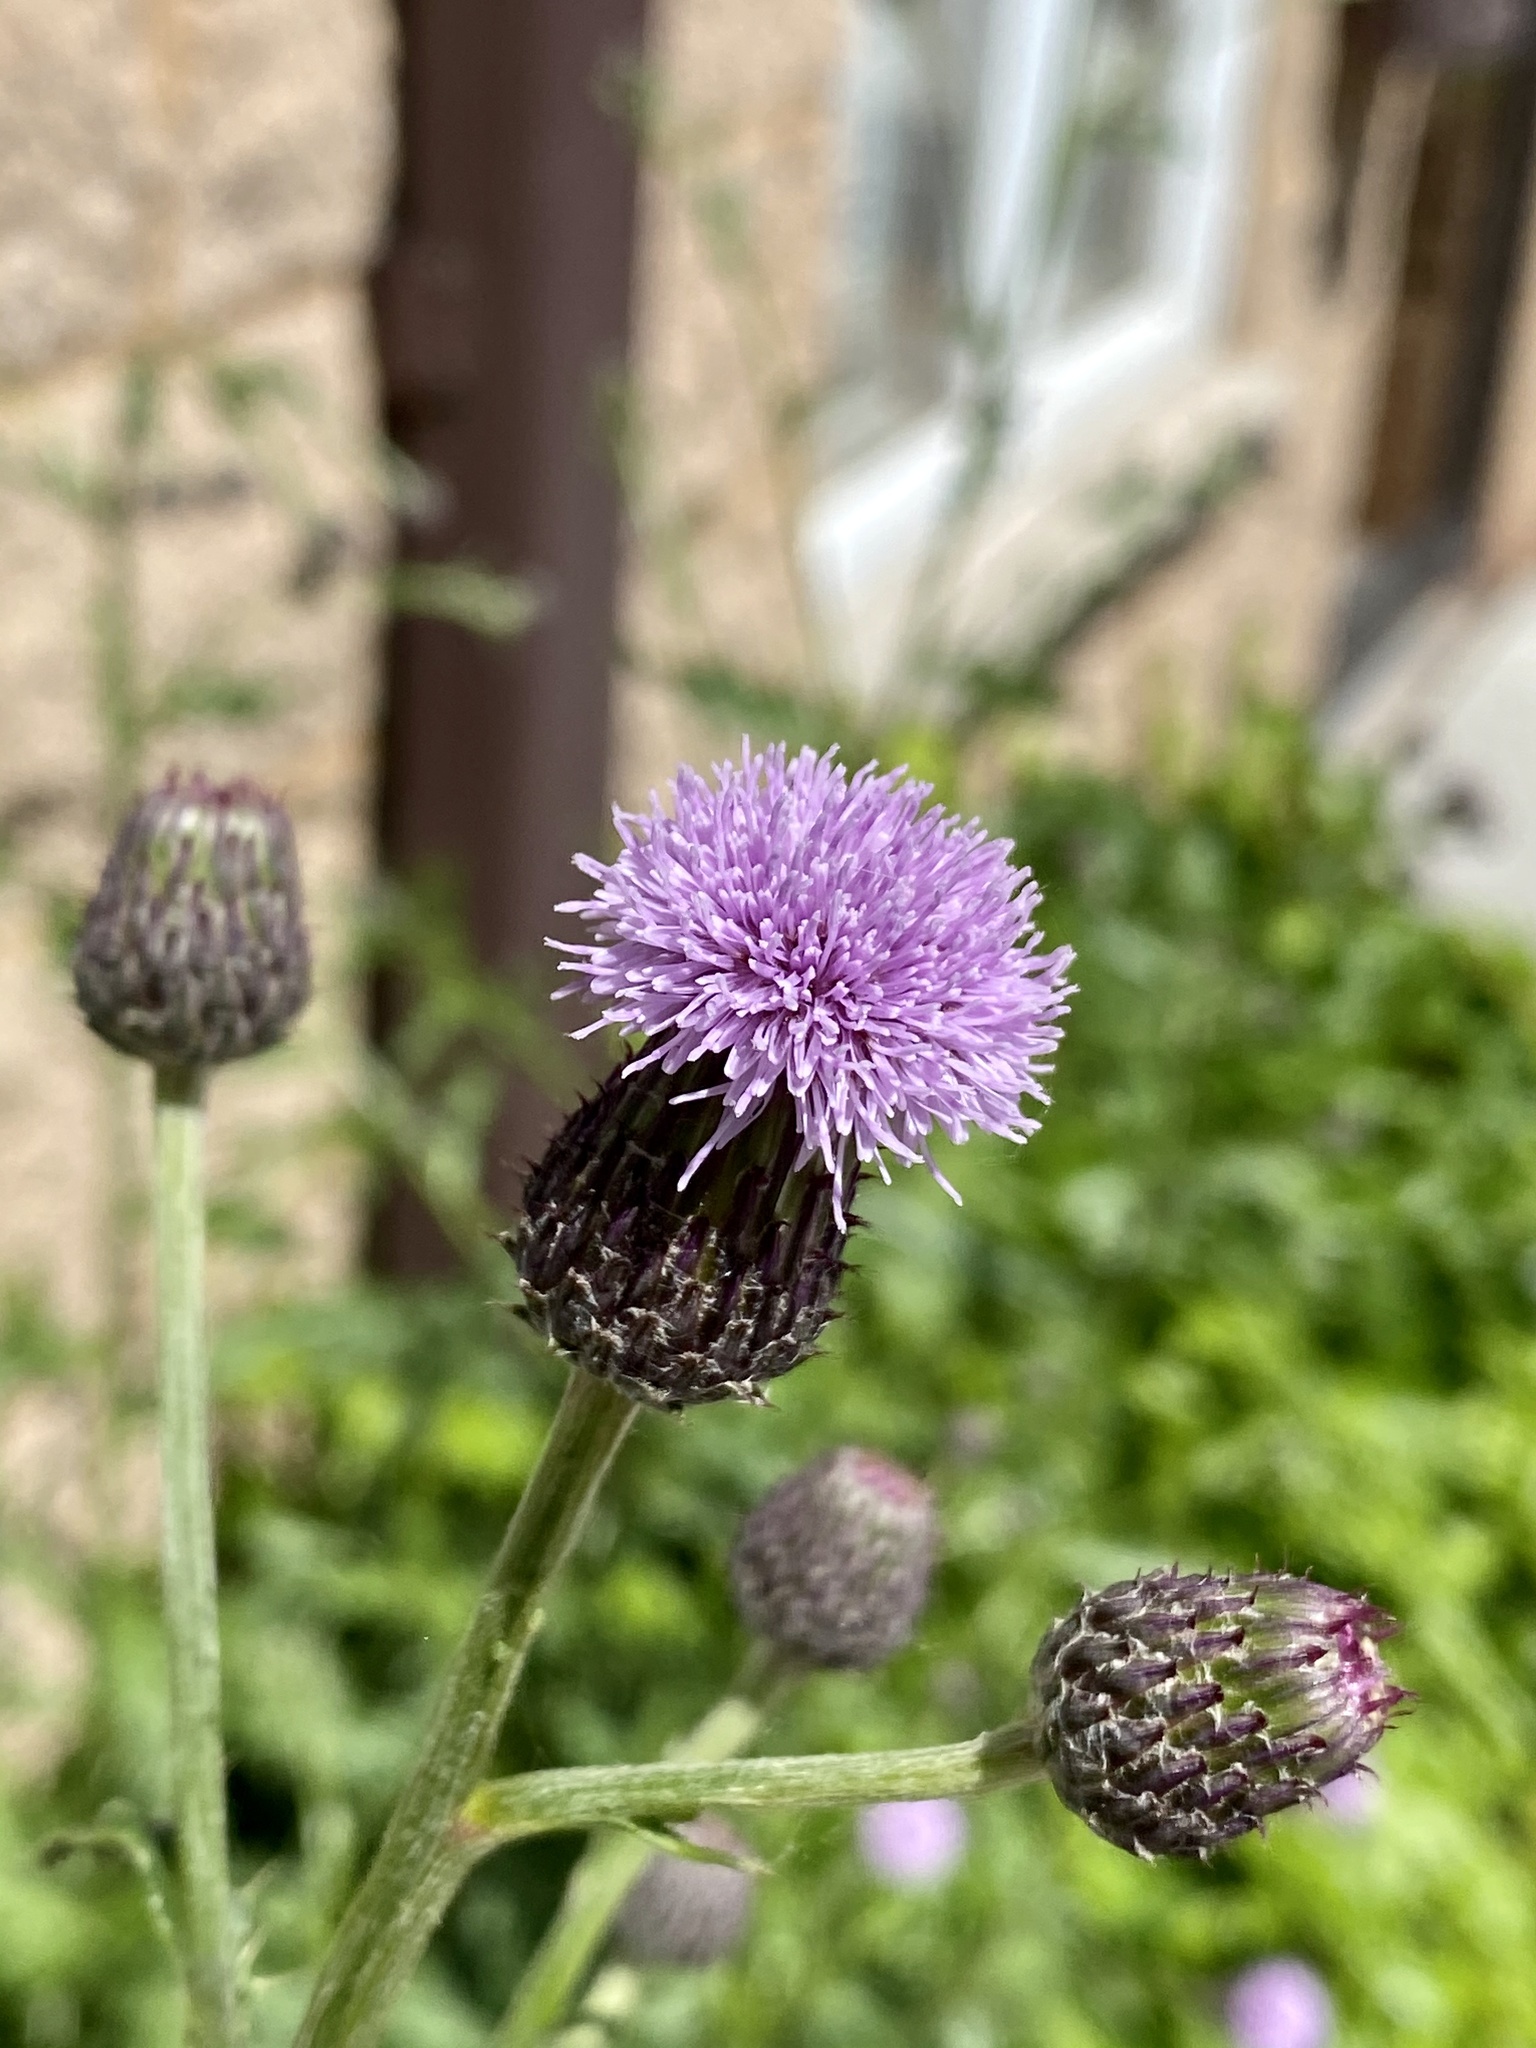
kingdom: Plantae
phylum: Tracheophyta
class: Magnoliopsida
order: Asterales
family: Asteraceae
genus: Cirsium
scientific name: Cirsium arvense
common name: Creeping thistle
